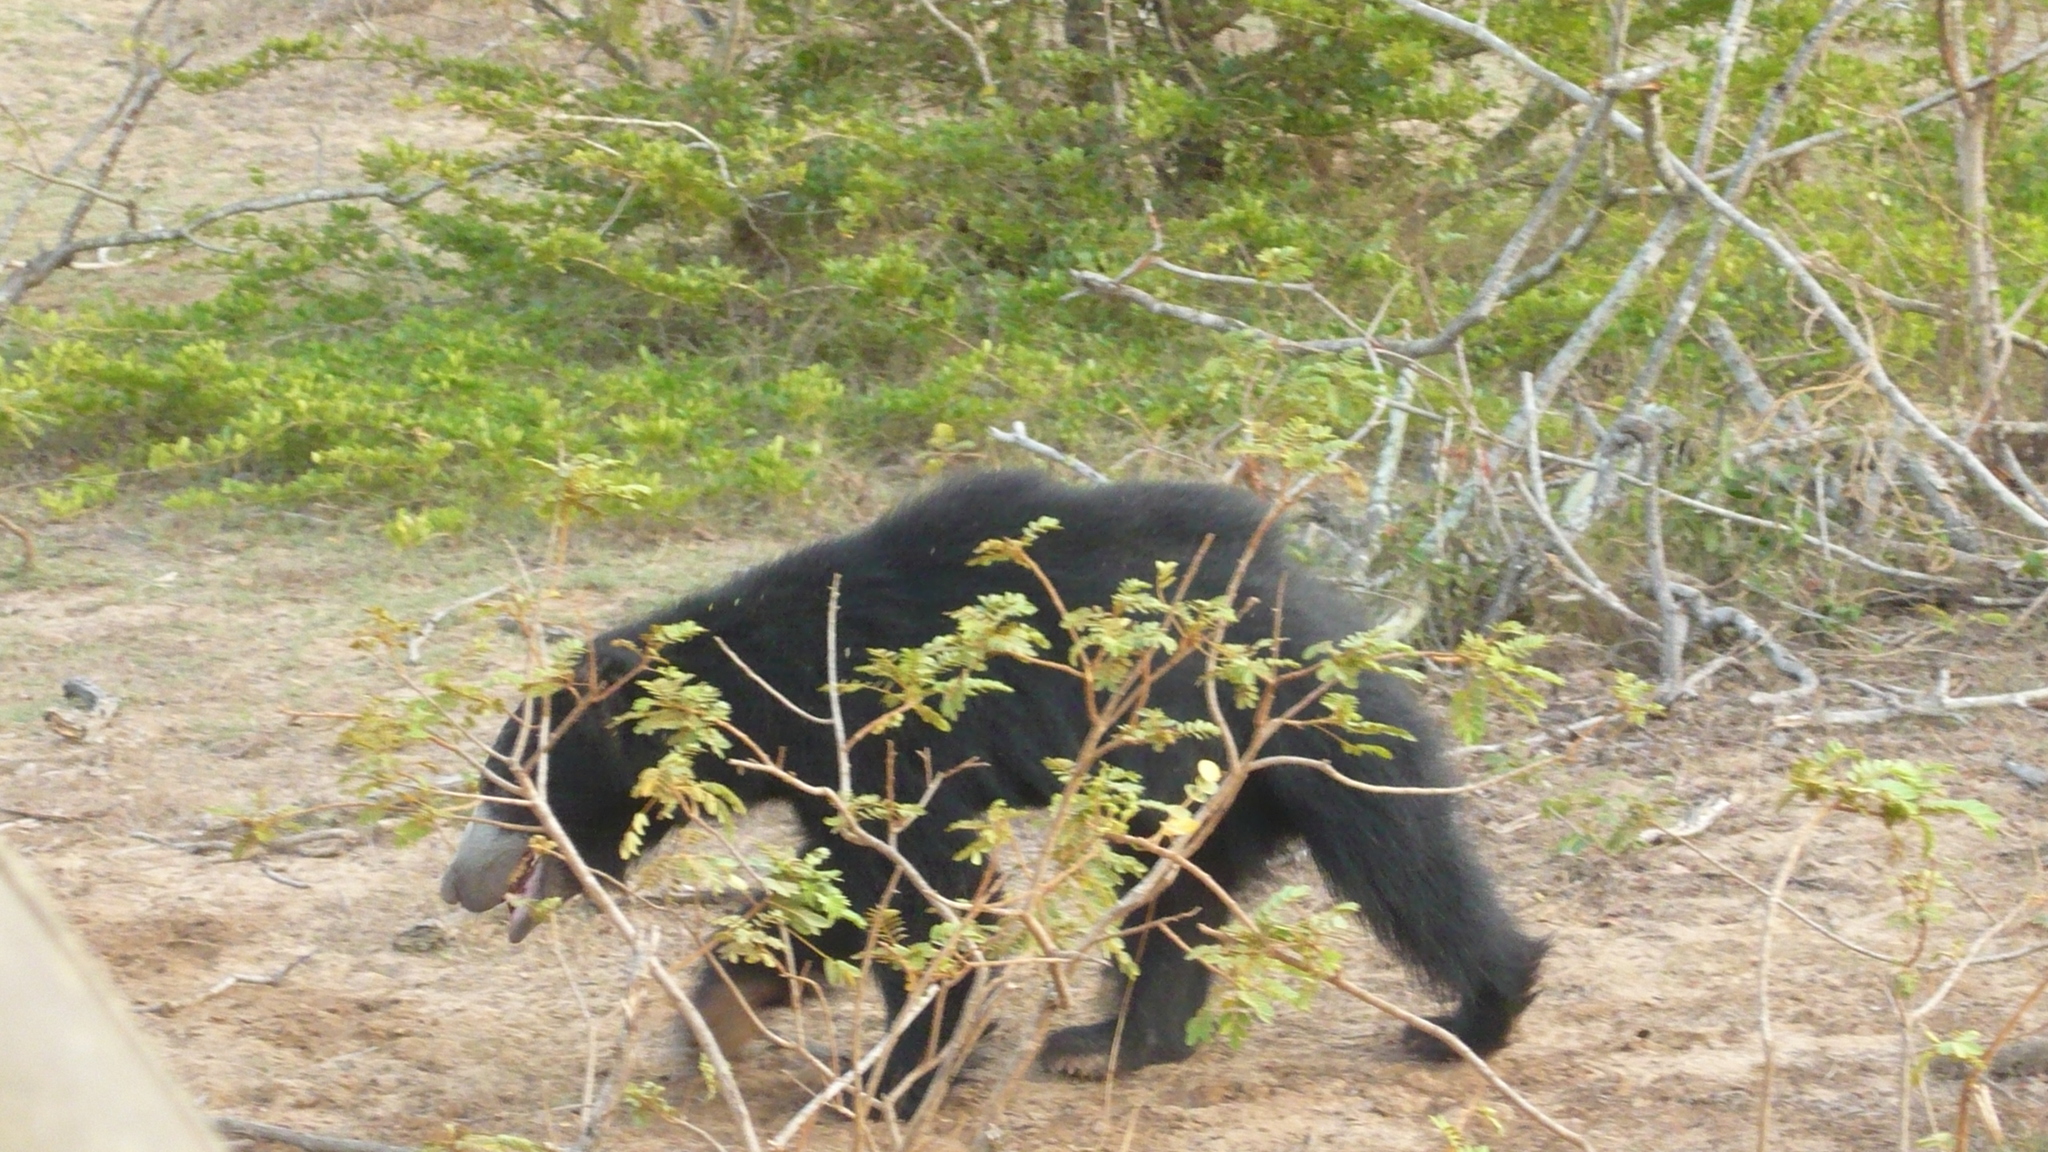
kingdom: Animalia
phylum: Chordata
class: Mammalia
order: Carnivora
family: Ursidae
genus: Melursus
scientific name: Melursus ursinus
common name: Sloth bear
